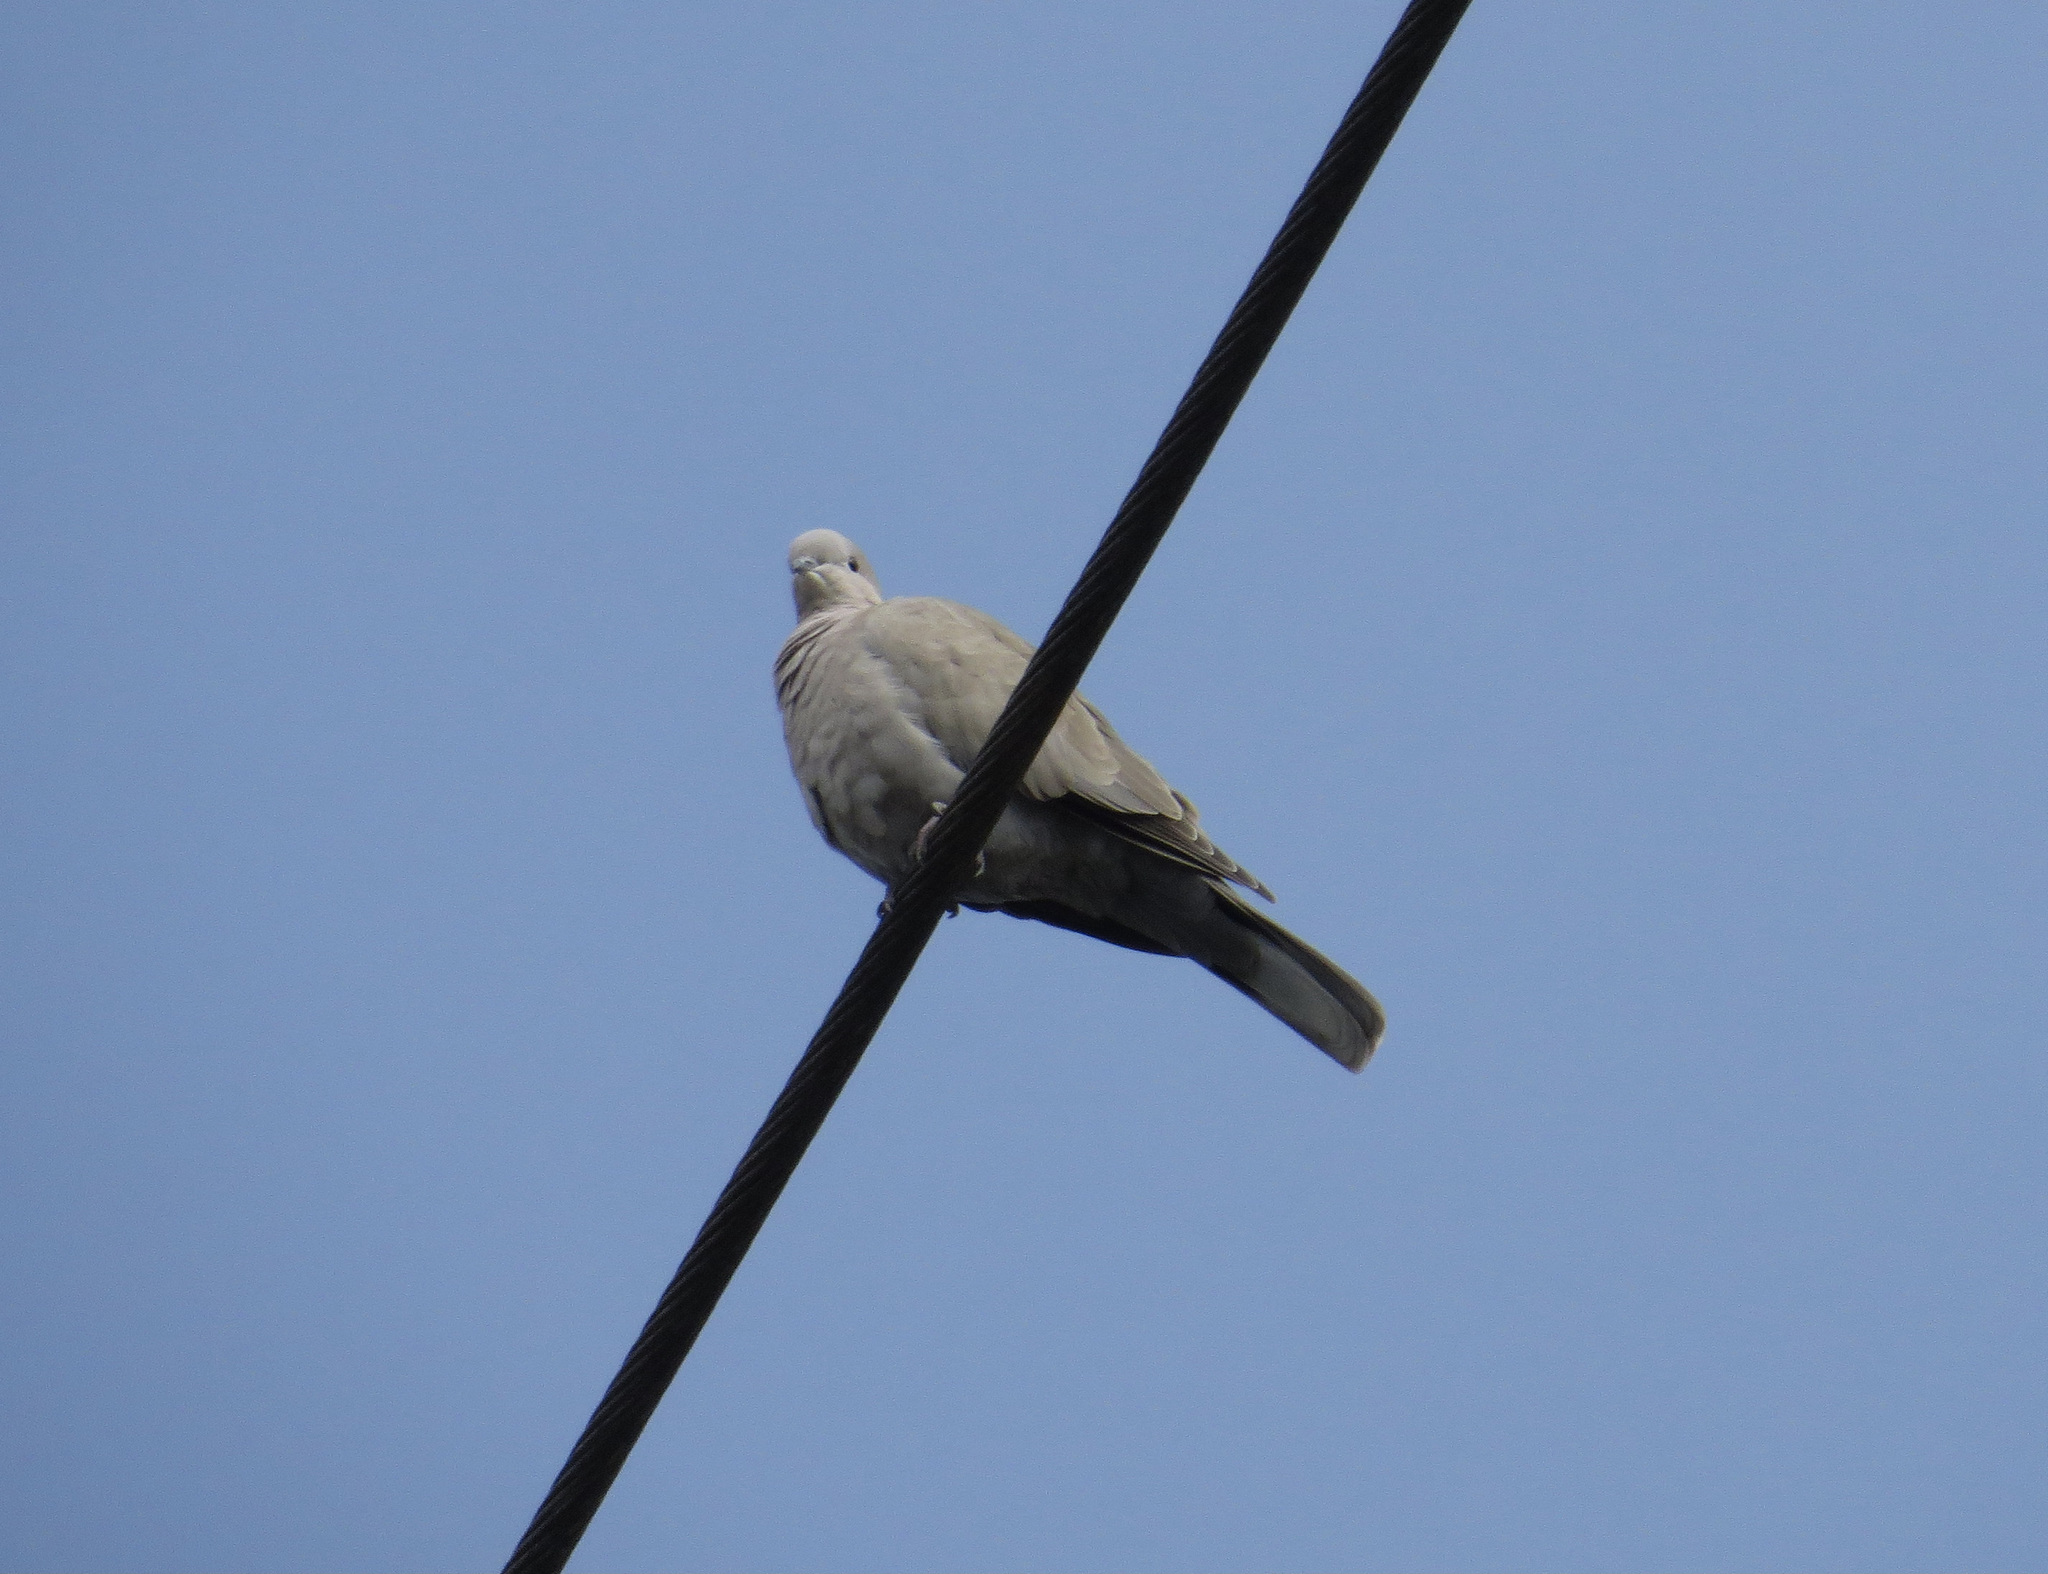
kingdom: Animalia
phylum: Chordata
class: Aves
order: Columbiformes
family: Columbidae
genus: Streptopelia
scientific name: Streptopelia decaocto
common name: Eurasian collared dove
